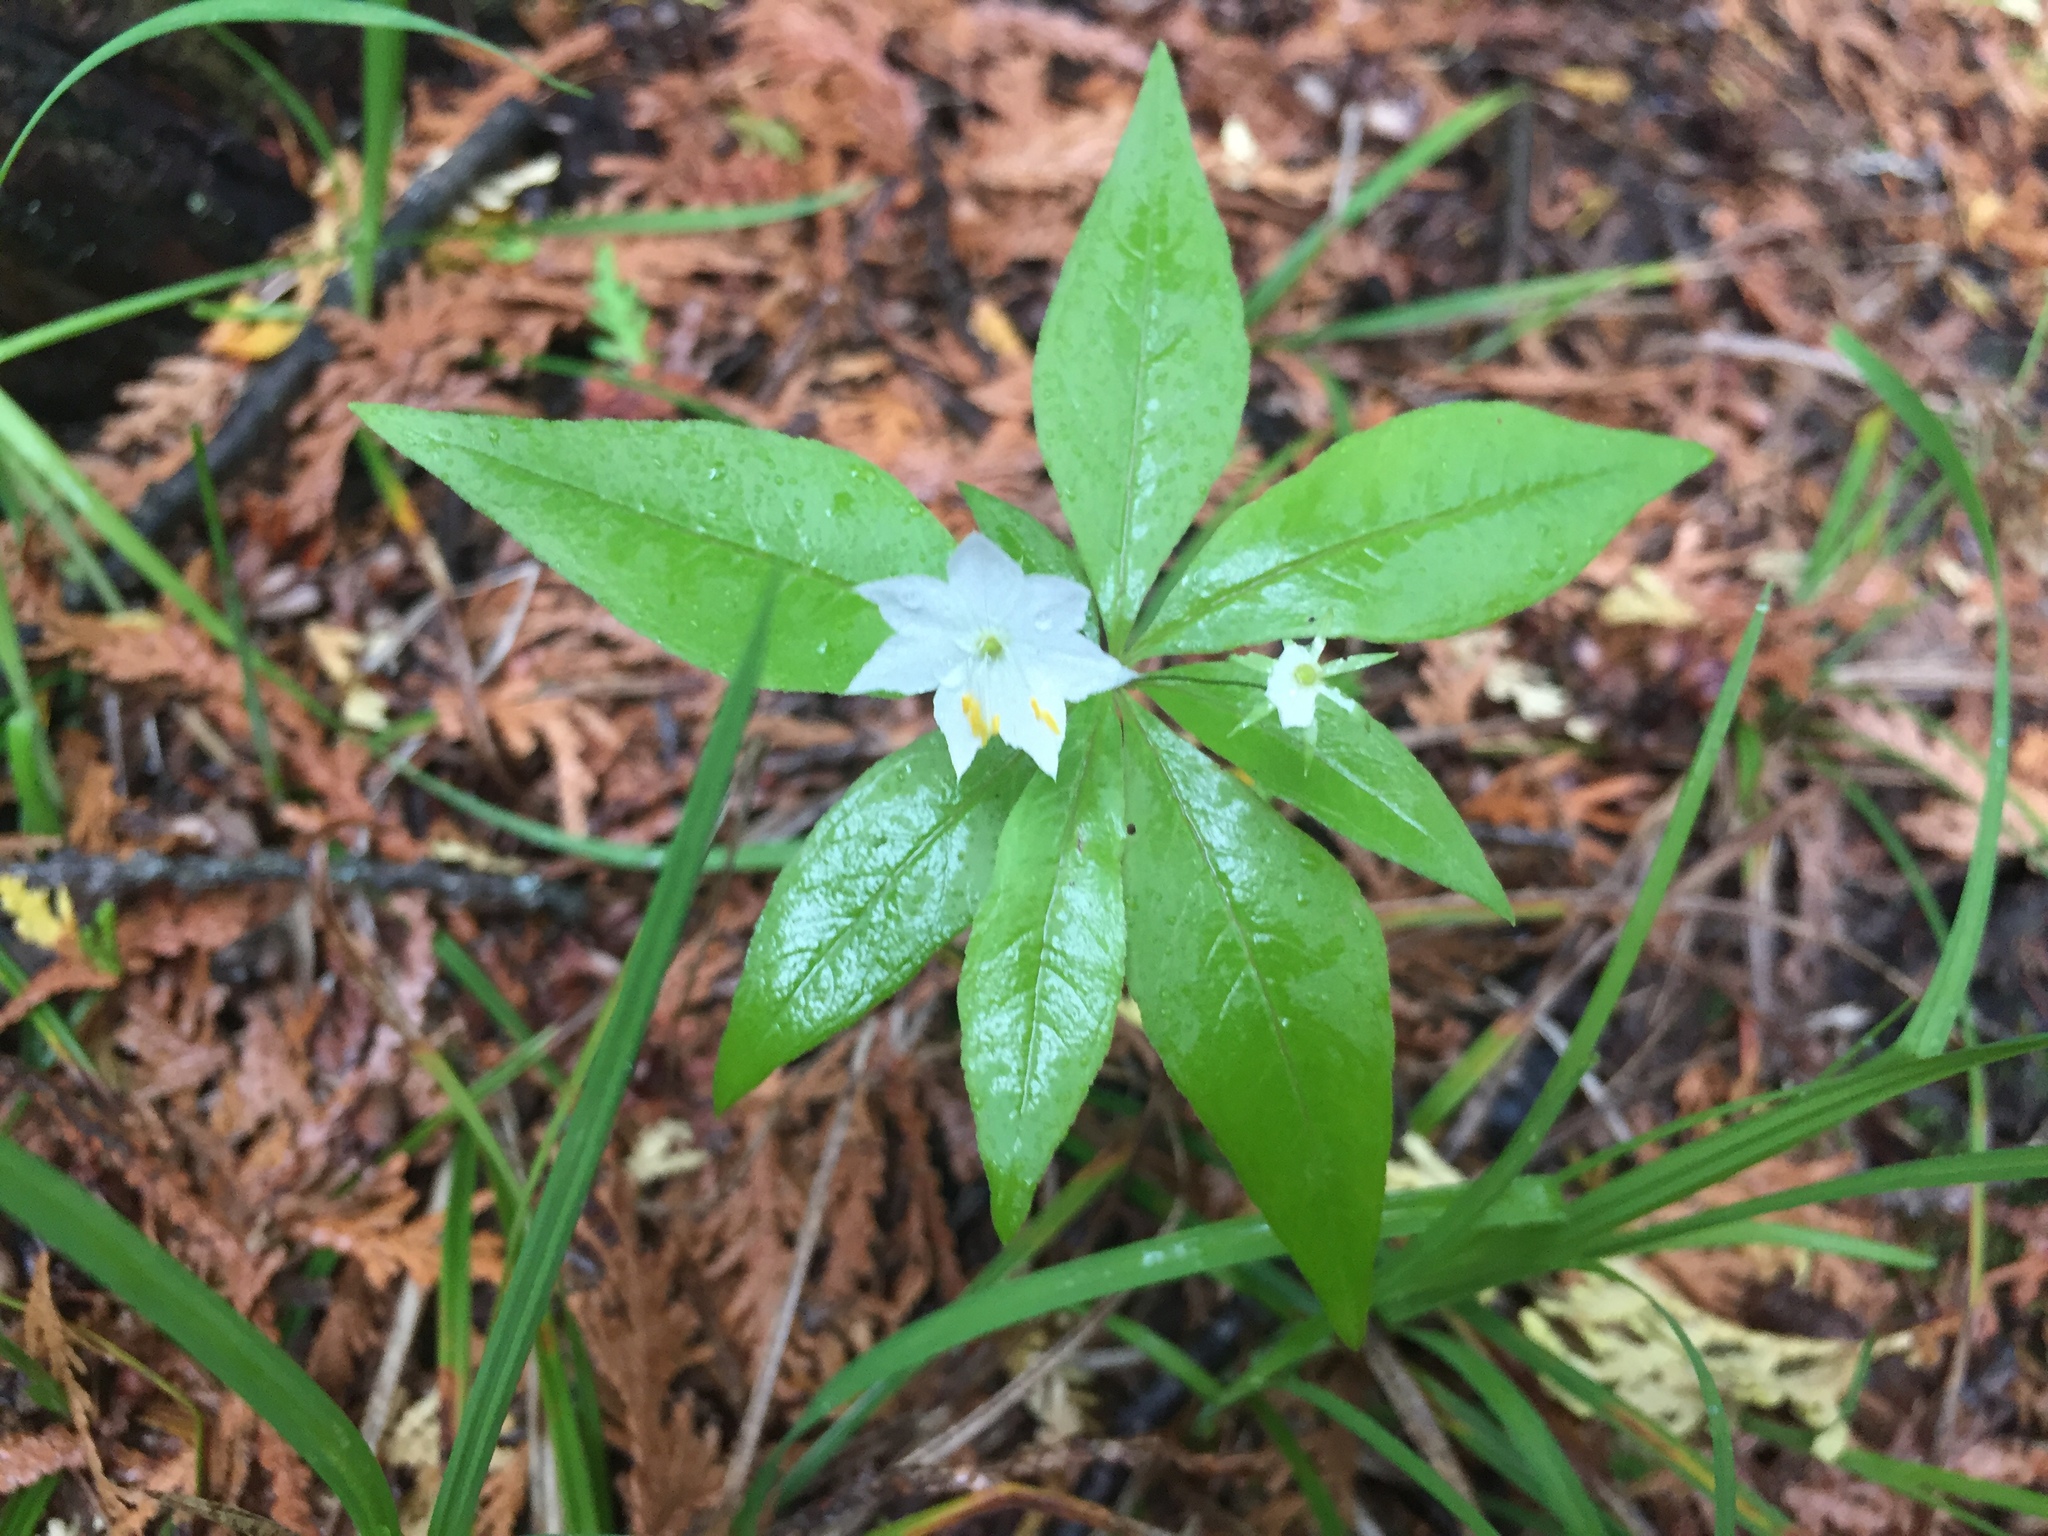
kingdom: Plantae
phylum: Tracheophyta
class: Magnoliopsida
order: Ericales
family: Primulaceae
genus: Lysimachia
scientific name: Lysimachia borealis
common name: American starflower
